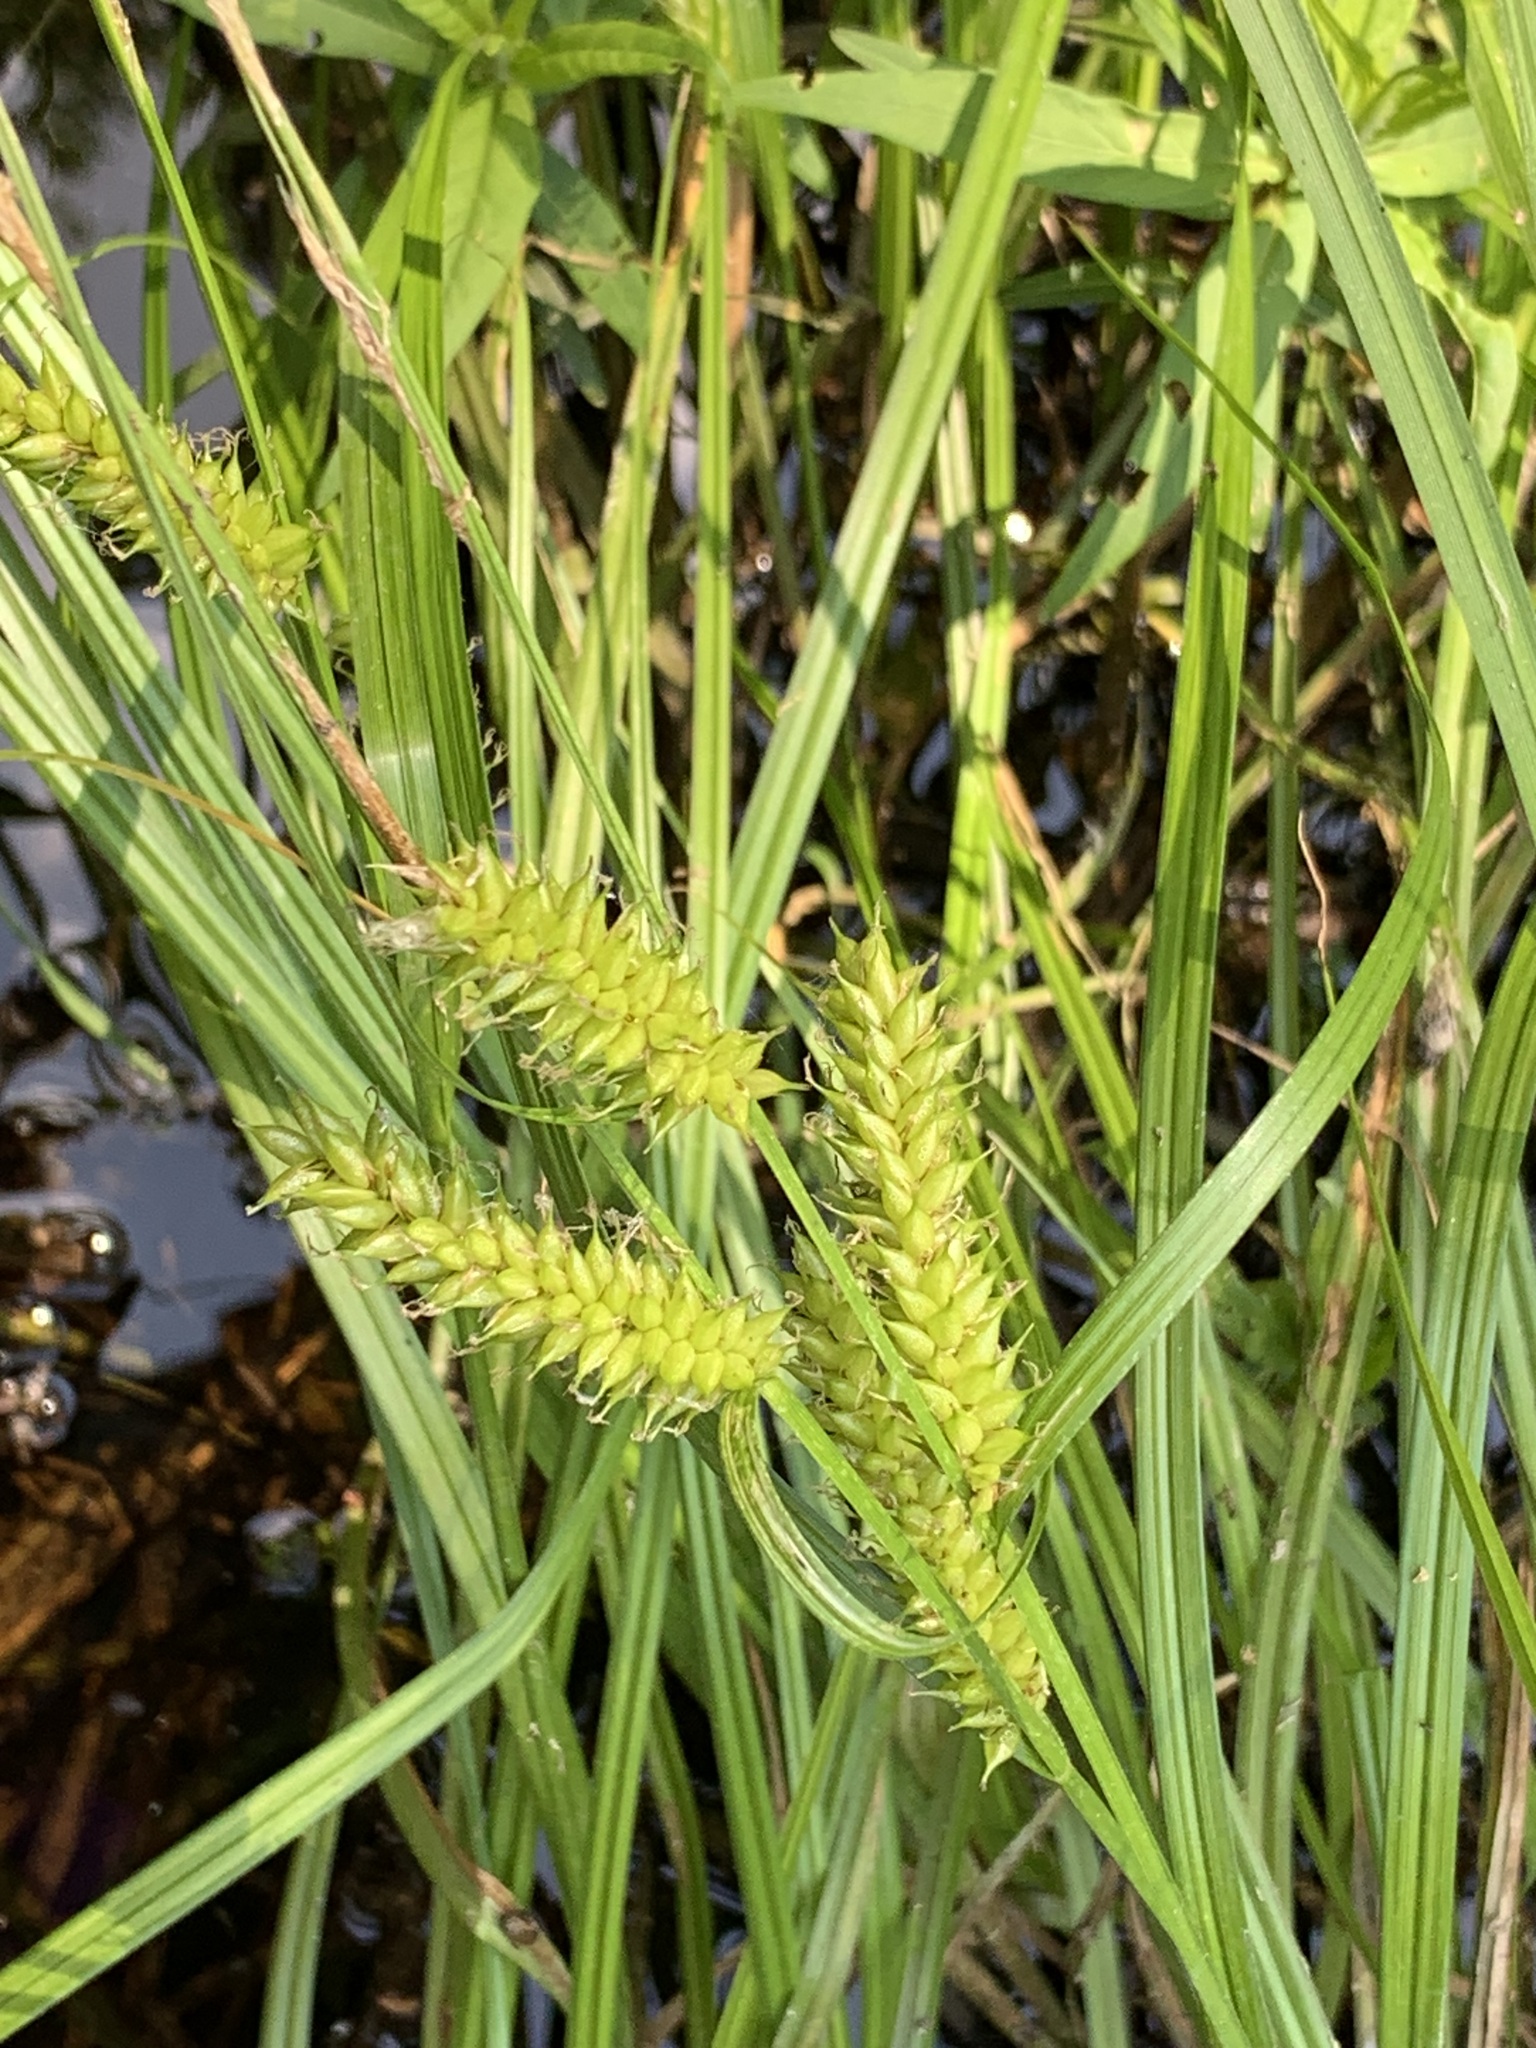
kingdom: Plantae
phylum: Tracheophyta
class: Liliopsida
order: Poales
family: Cyperaceae
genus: Carex
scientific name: Carex vesicaria
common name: Bladder-sedge
